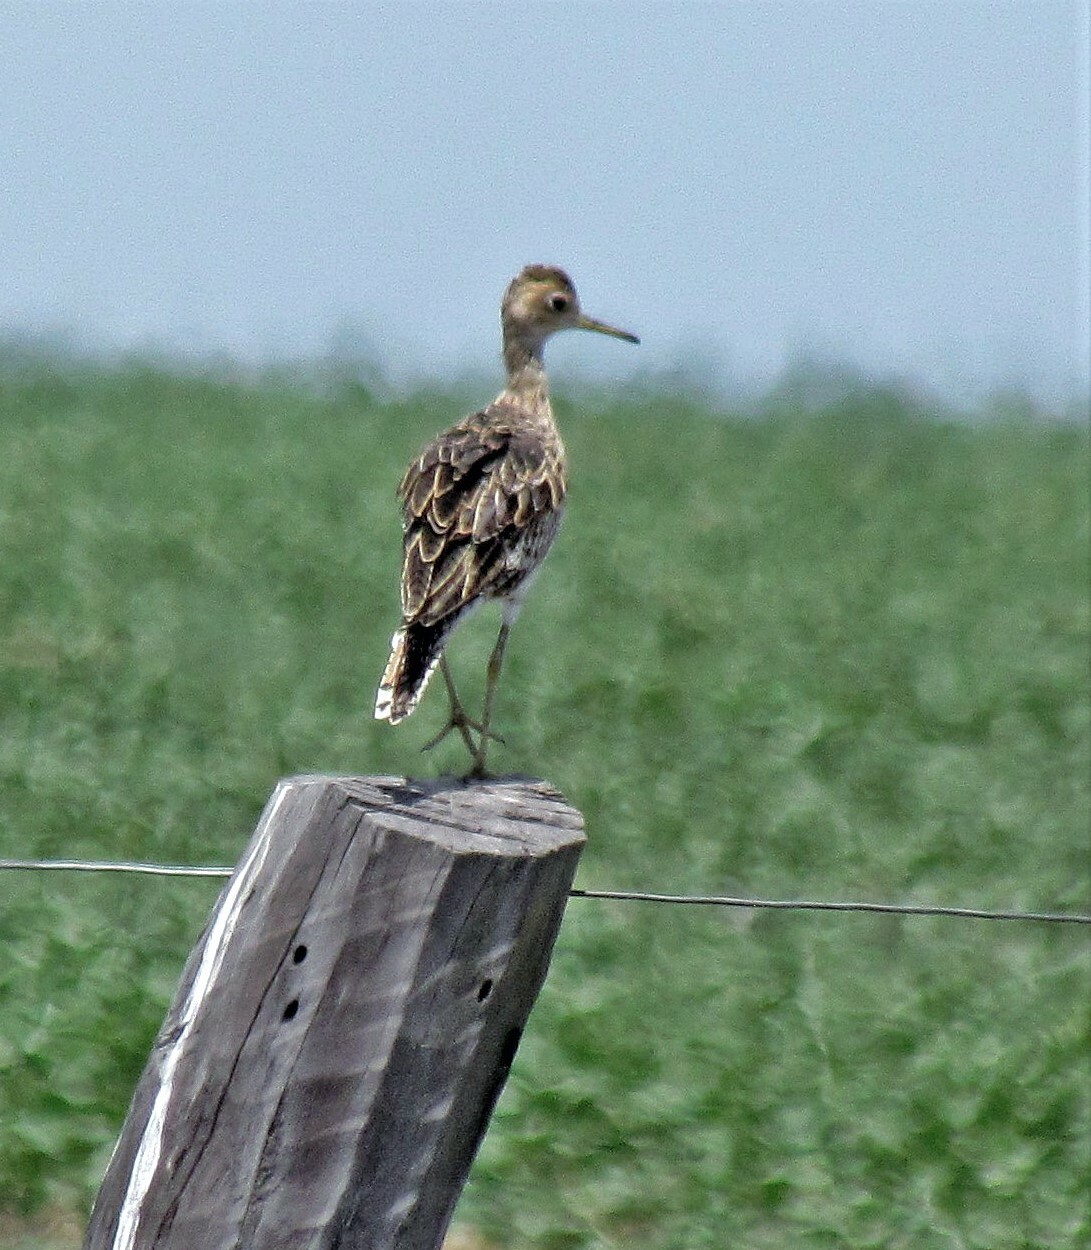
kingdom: Animalia
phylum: Chordata
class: Aves
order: Charadriiformes
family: Scolopacidae
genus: Bartramia
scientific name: Bartramia longicauda
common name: Upland sandpiper
